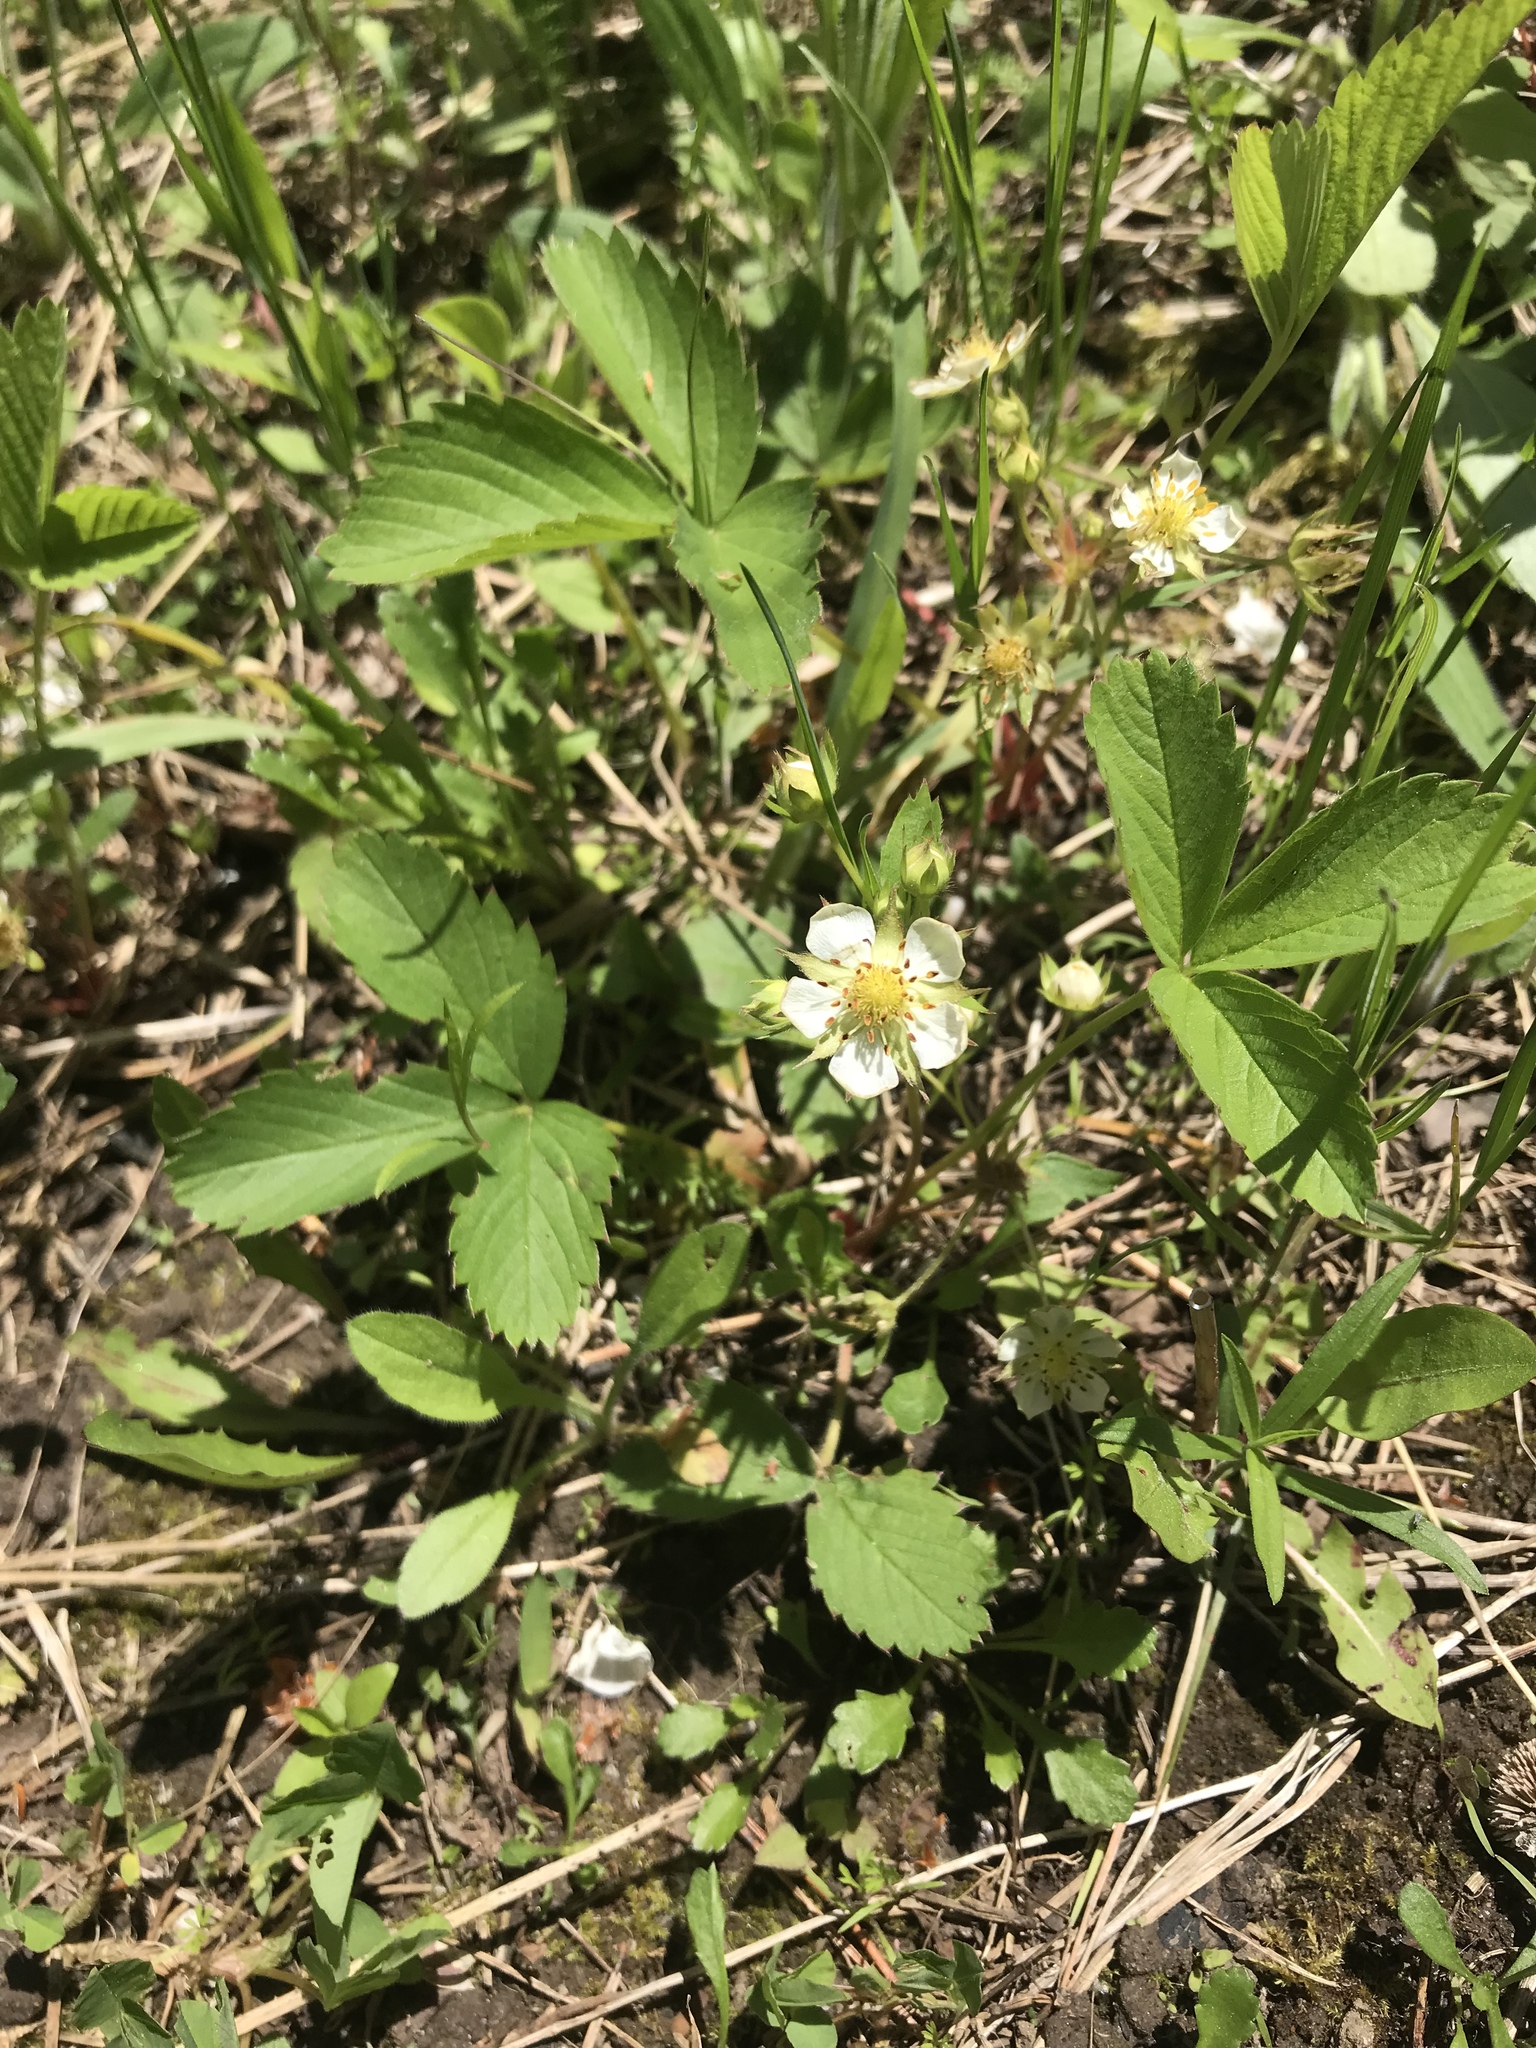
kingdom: Plantae
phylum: Tracheophyta
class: Magnoliopsida
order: Rosales
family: Rosaceae
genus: Fragaria
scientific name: Fragaria virginiana
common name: Thickleaved wild strawberry
